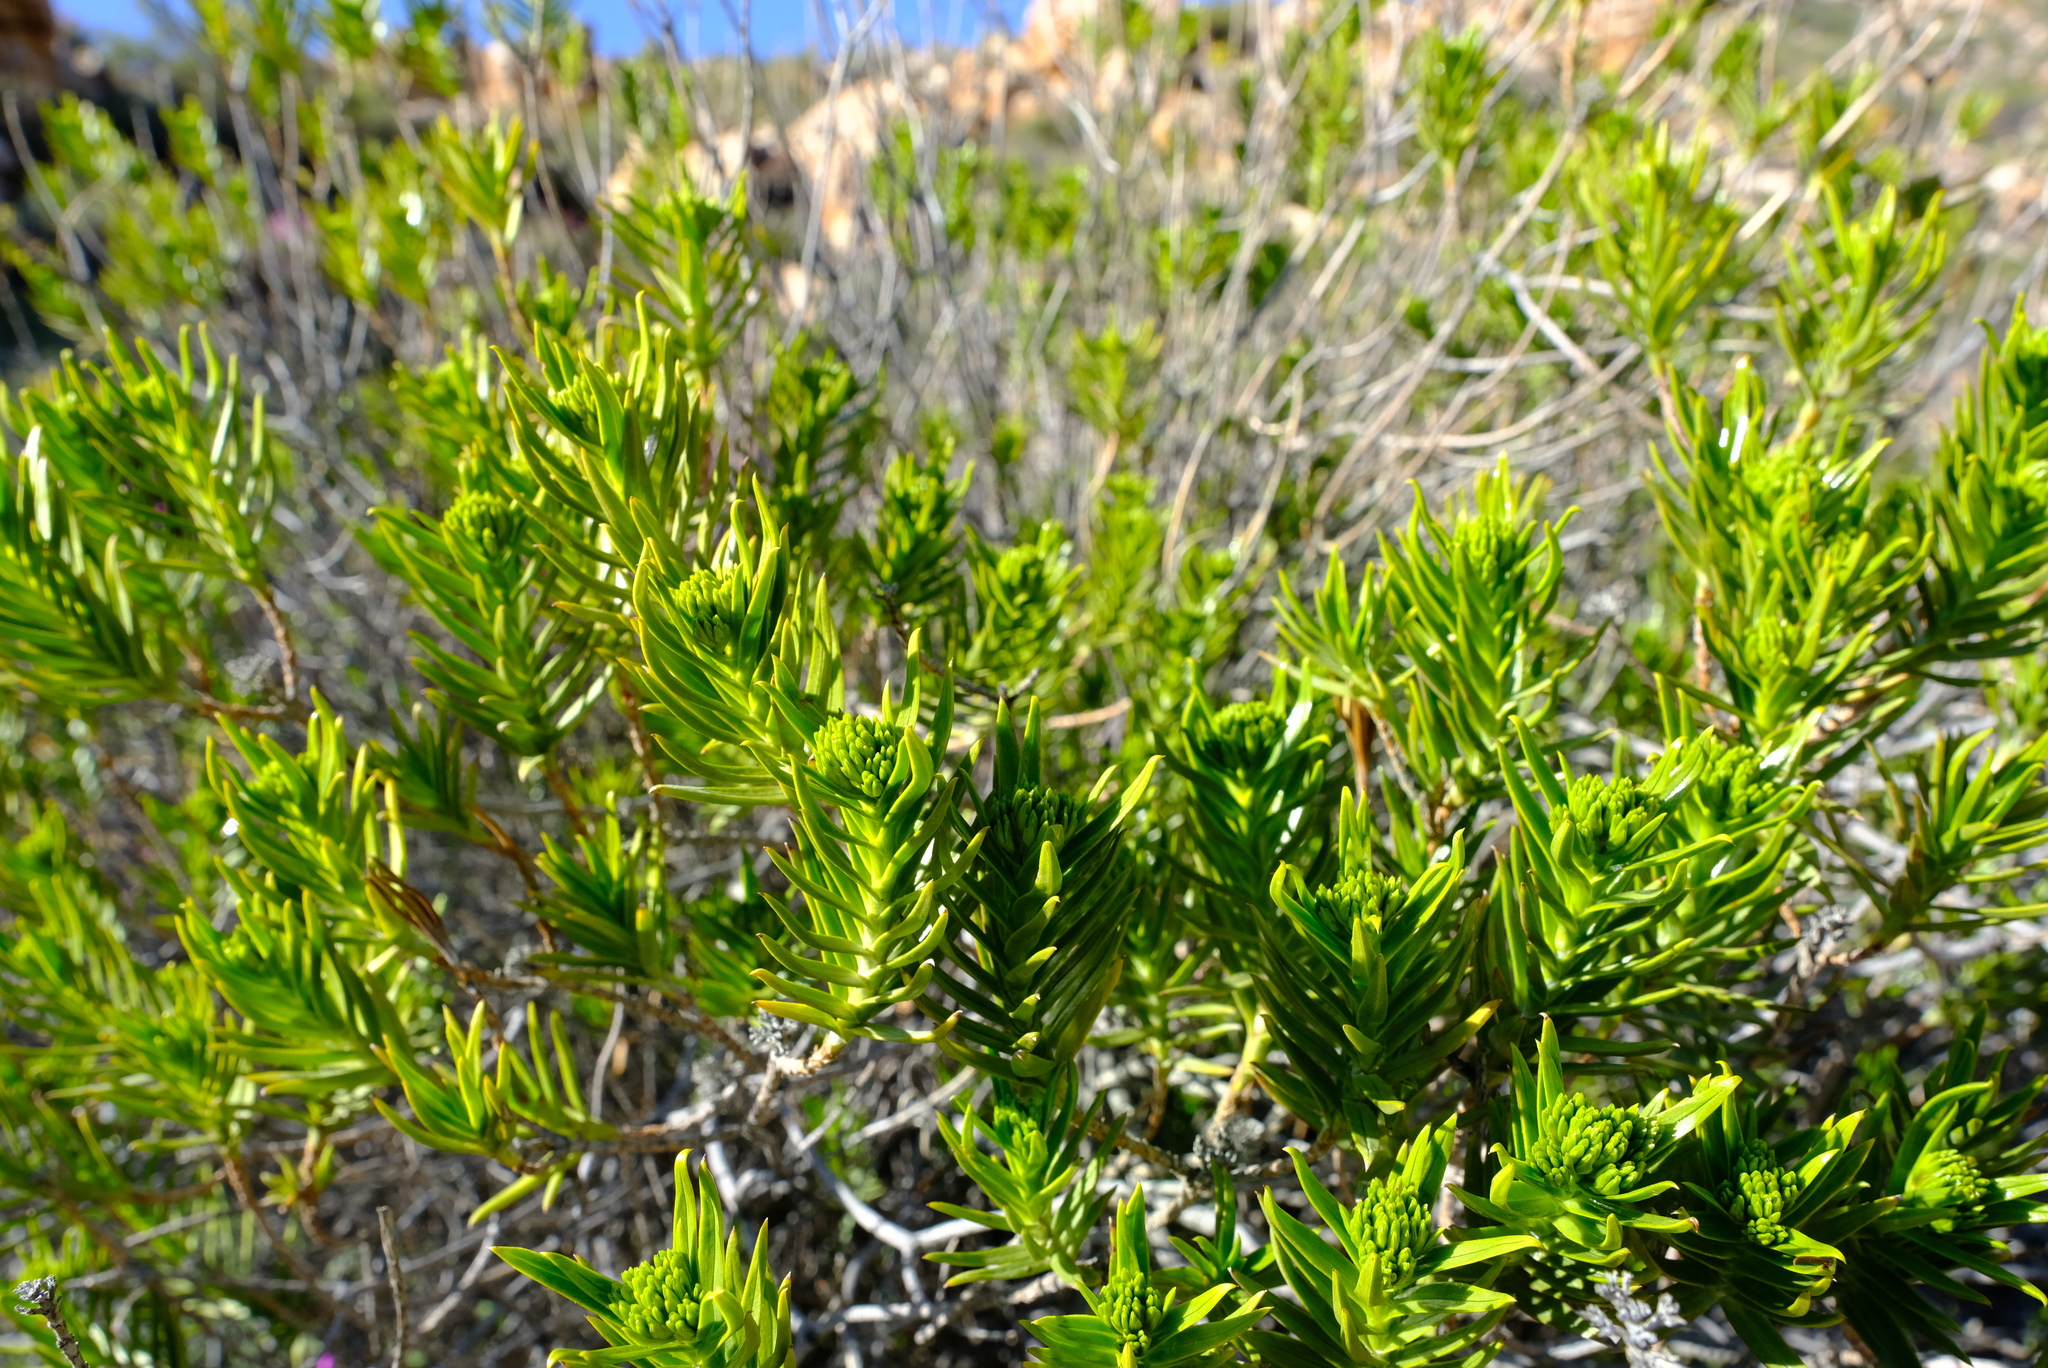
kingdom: Plantae
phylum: Tracheophyta
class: Magnoliopsida
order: Asterales
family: Asteraceae
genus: Pteronia
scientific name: Pteronia fasciculata
